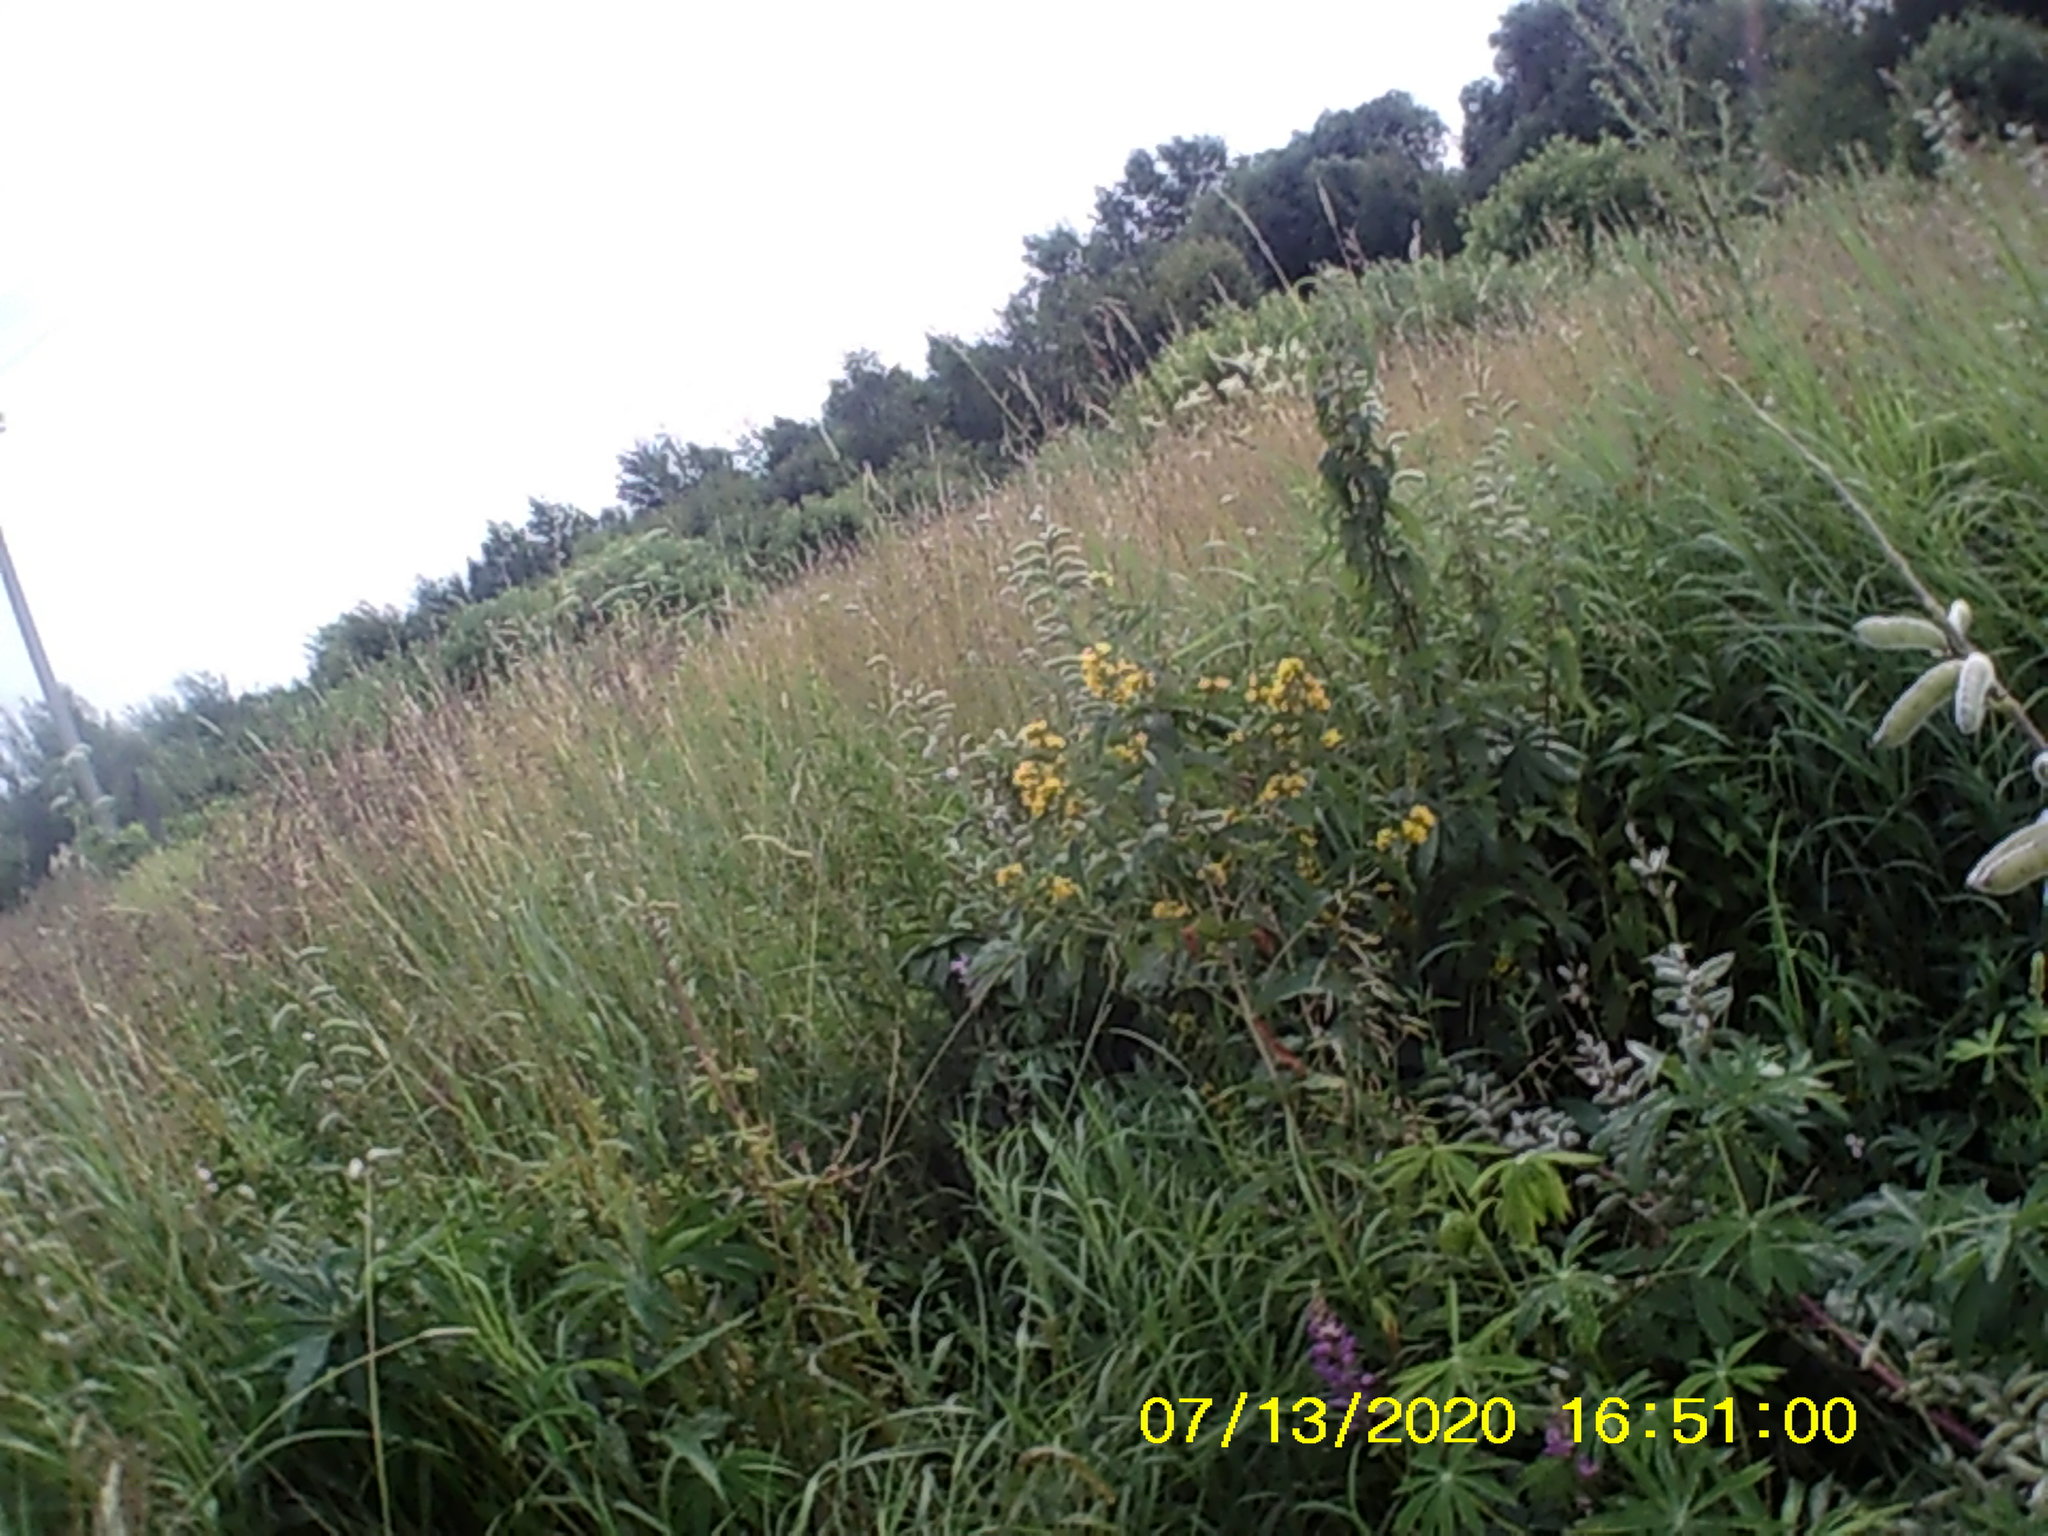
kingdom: Plantae
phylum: Tracheophyta
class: Magnoliopsida
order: Fabales
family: Fabaceae
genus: Lupinus
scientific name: Lupinus polyphyllus
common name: Garden lupin
